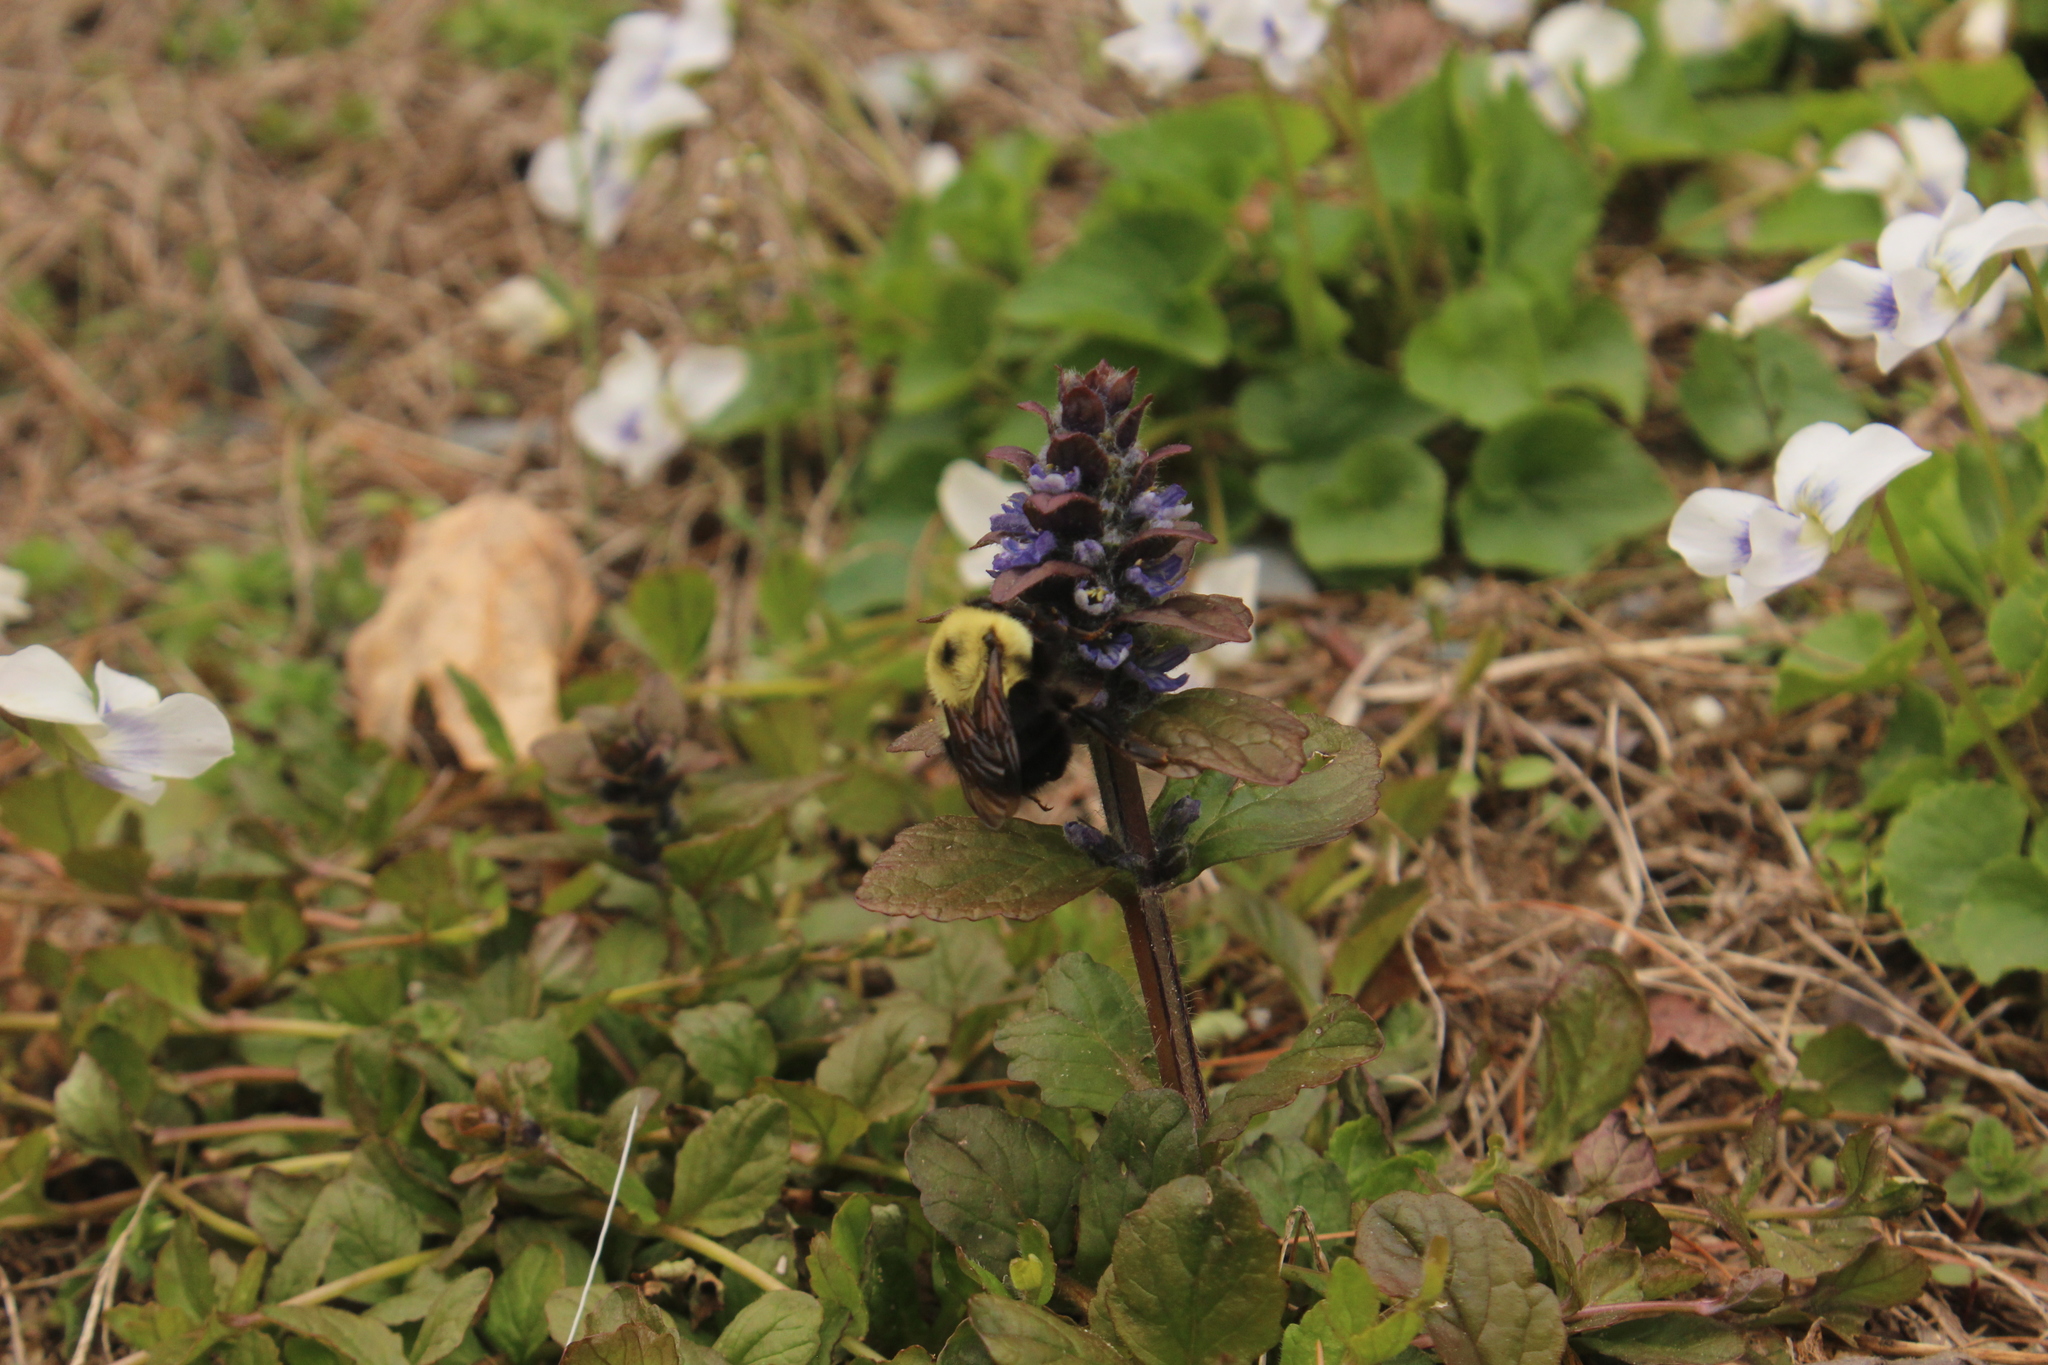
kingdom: Animalia
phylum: Arthropoda
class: Insecta
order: Hymenoptera
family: Apidae
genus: Bombus
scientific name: Bombus bimaculatus
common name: Two-spotted bumble bee
